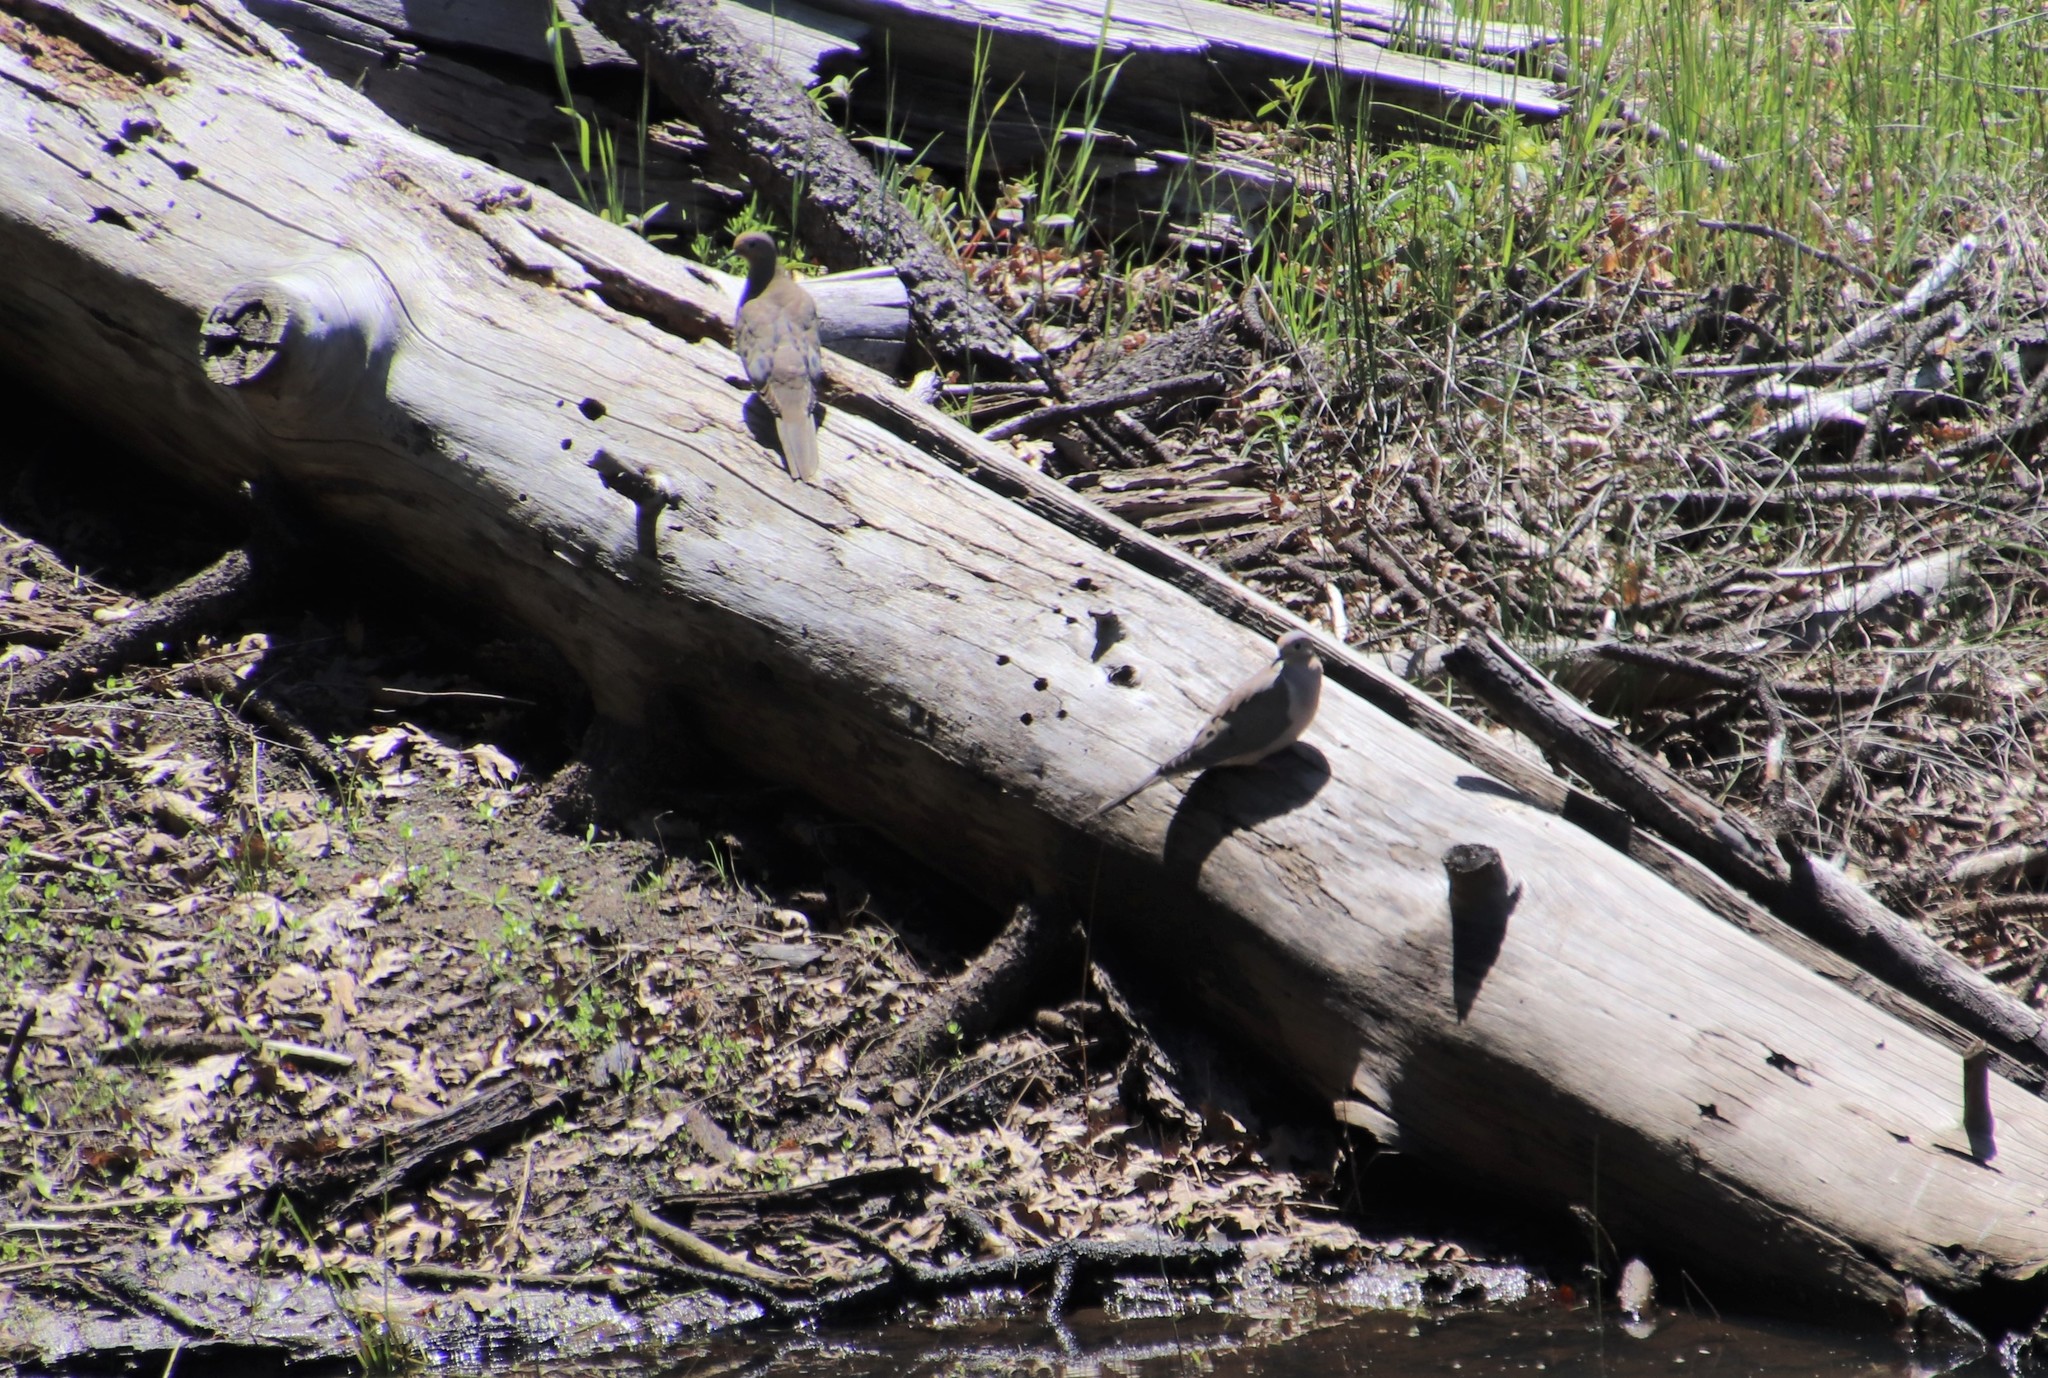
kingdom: Animalia
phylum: Chordata
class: Aves
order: Columbiformes
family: Columbidae
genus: Zenaida
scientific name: Zenaida macroura
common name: Mourning dove
